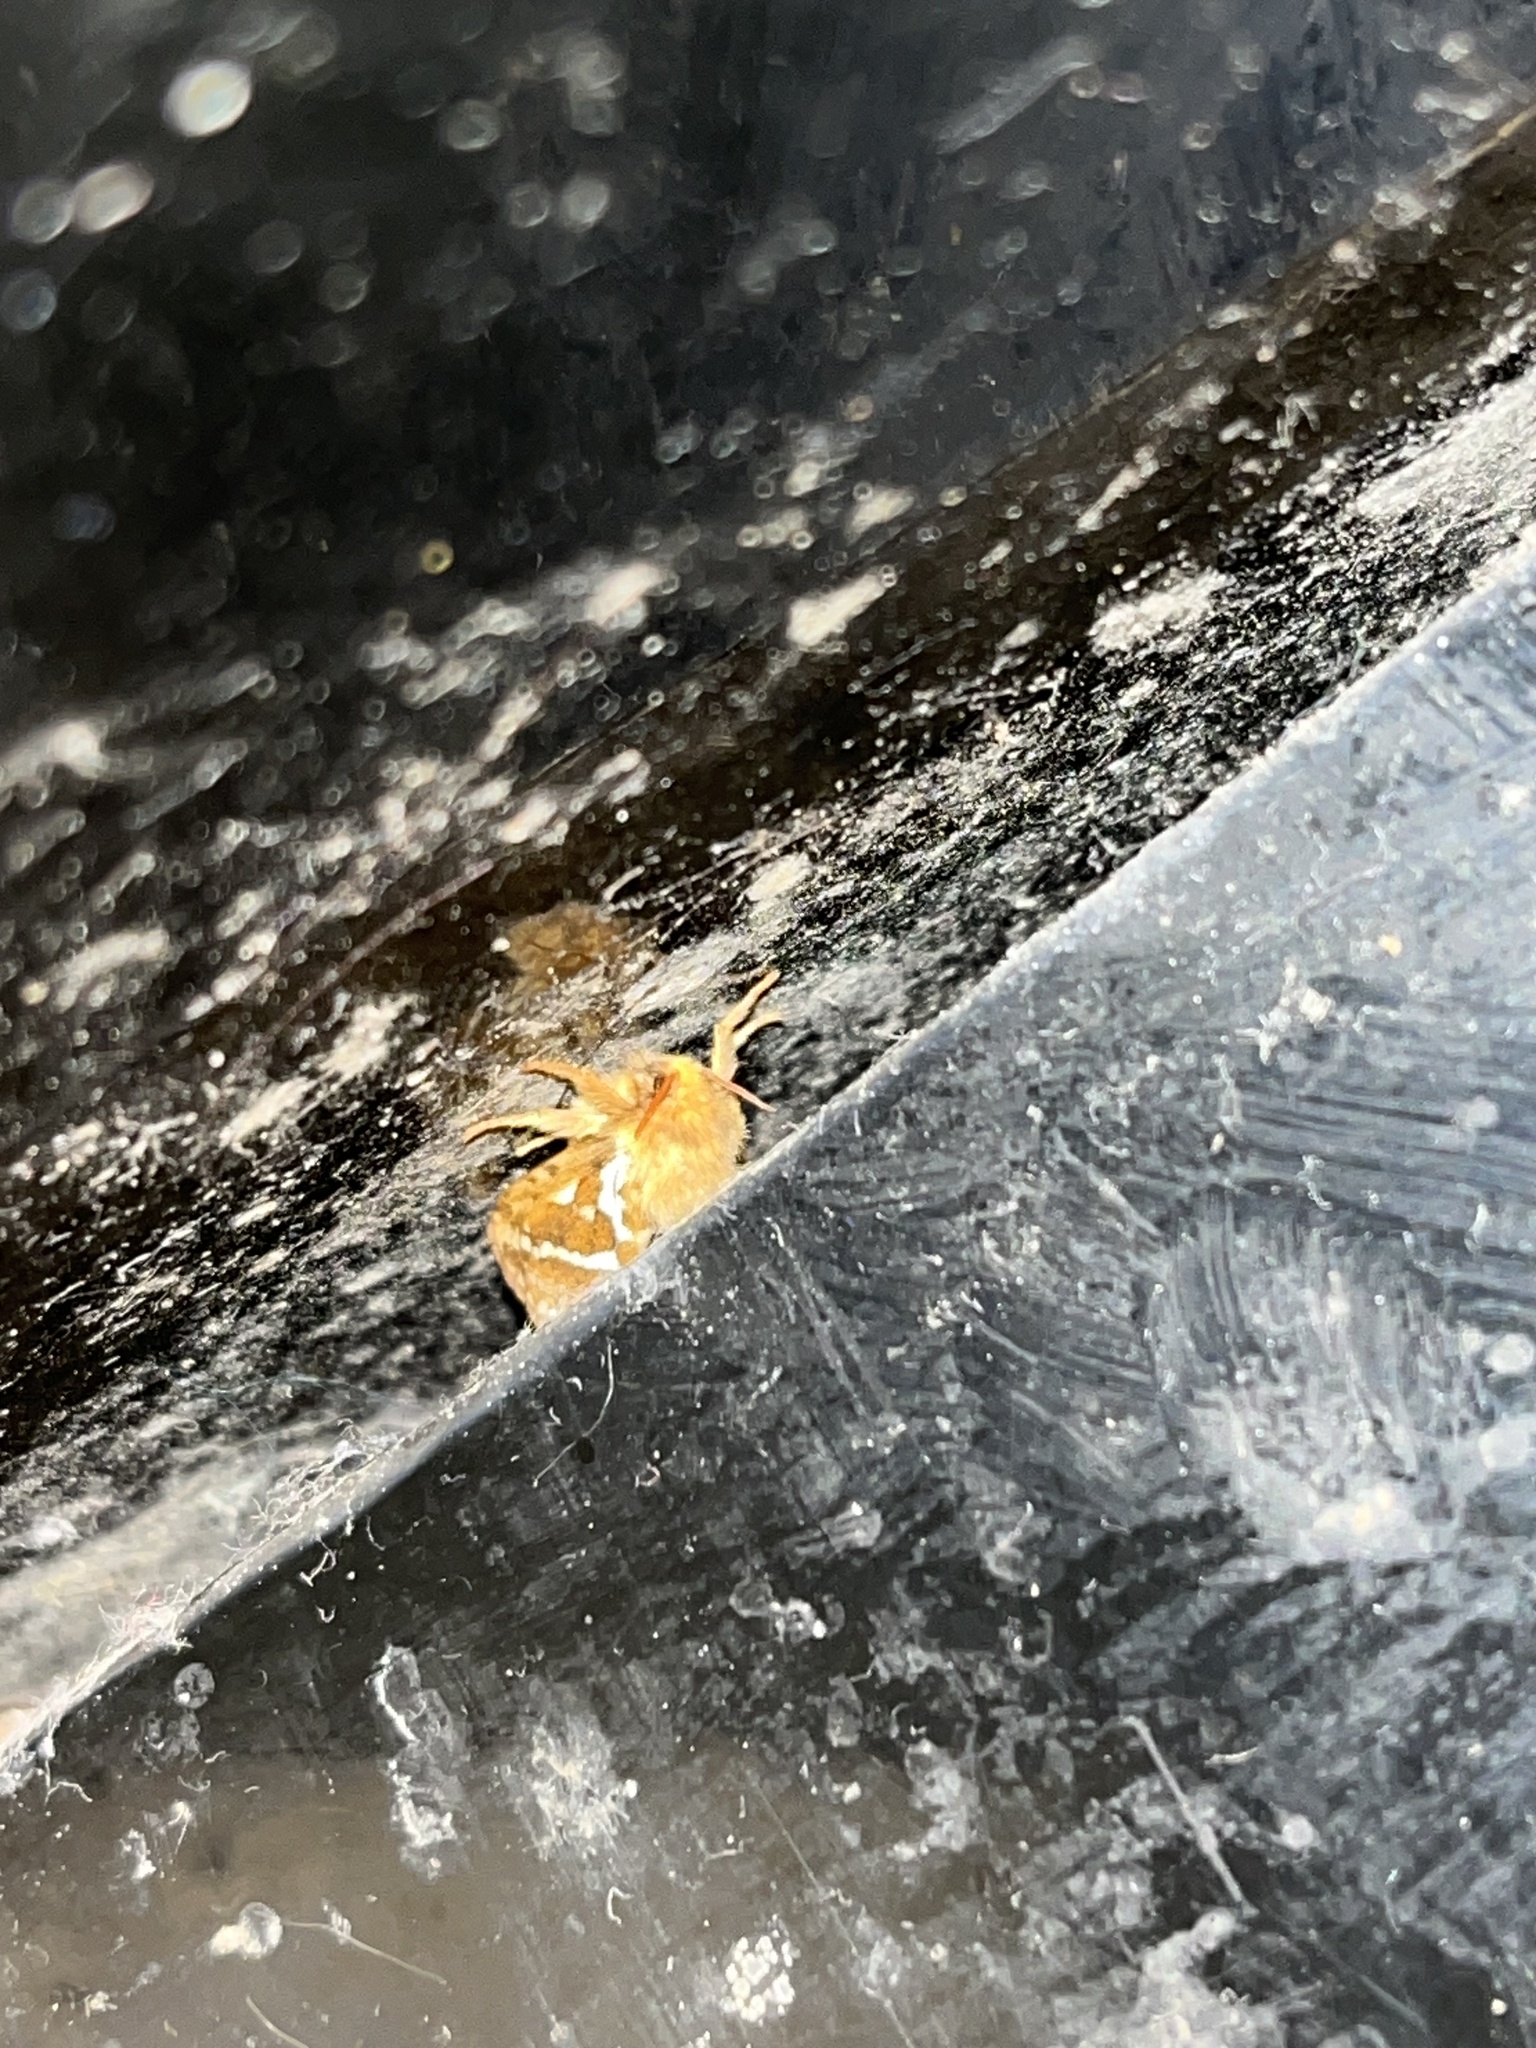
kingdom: Animalia
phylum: Arthropoda
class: Insecta
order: Lepidoptera
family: Hepialidae
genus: Korscheltellus
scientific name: Korscheltellus lupulina
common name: Common swift
